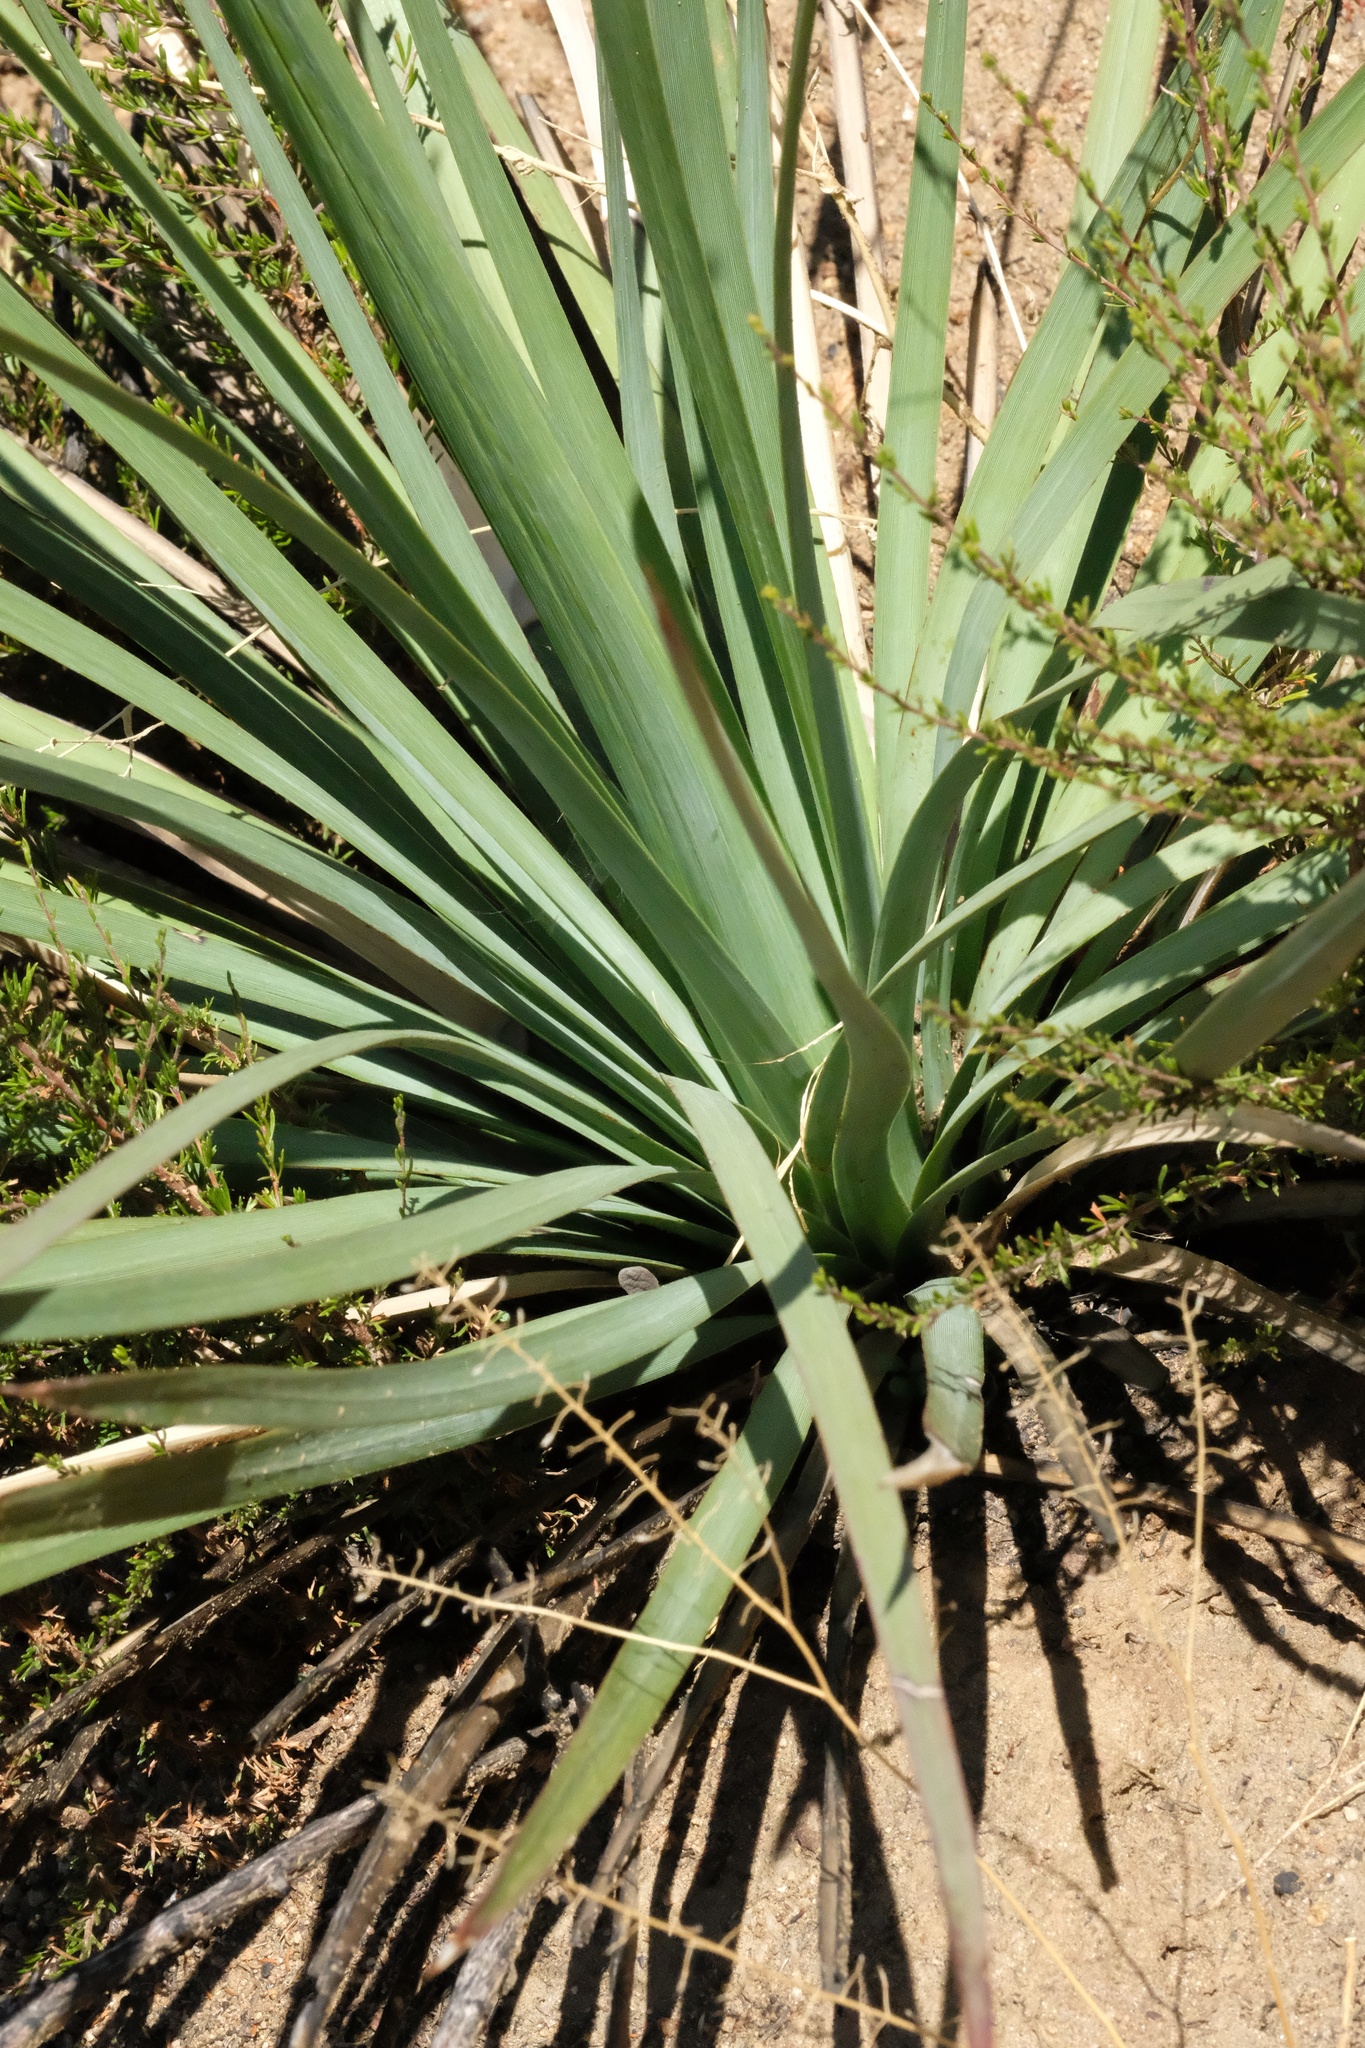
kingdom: Plantae
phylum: Tracheophyta
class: Liliopsida
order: Asparagales
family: Asparagaceae
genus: Hesperoyucca
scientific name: Hesperoyucca whipplei
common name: Our lord's-candle
